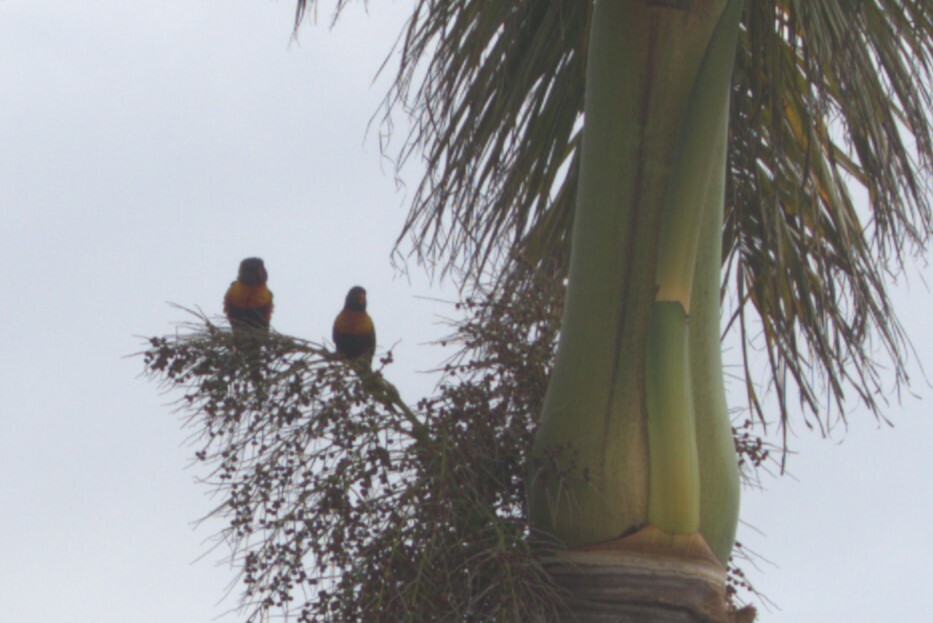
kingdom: Animalia
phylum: Chordata
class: Aves
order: Psittaciformes
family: Psittacidae
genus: Trichoglossus
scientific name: Trichoglossus haematodus
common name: Coconut lorikeet
